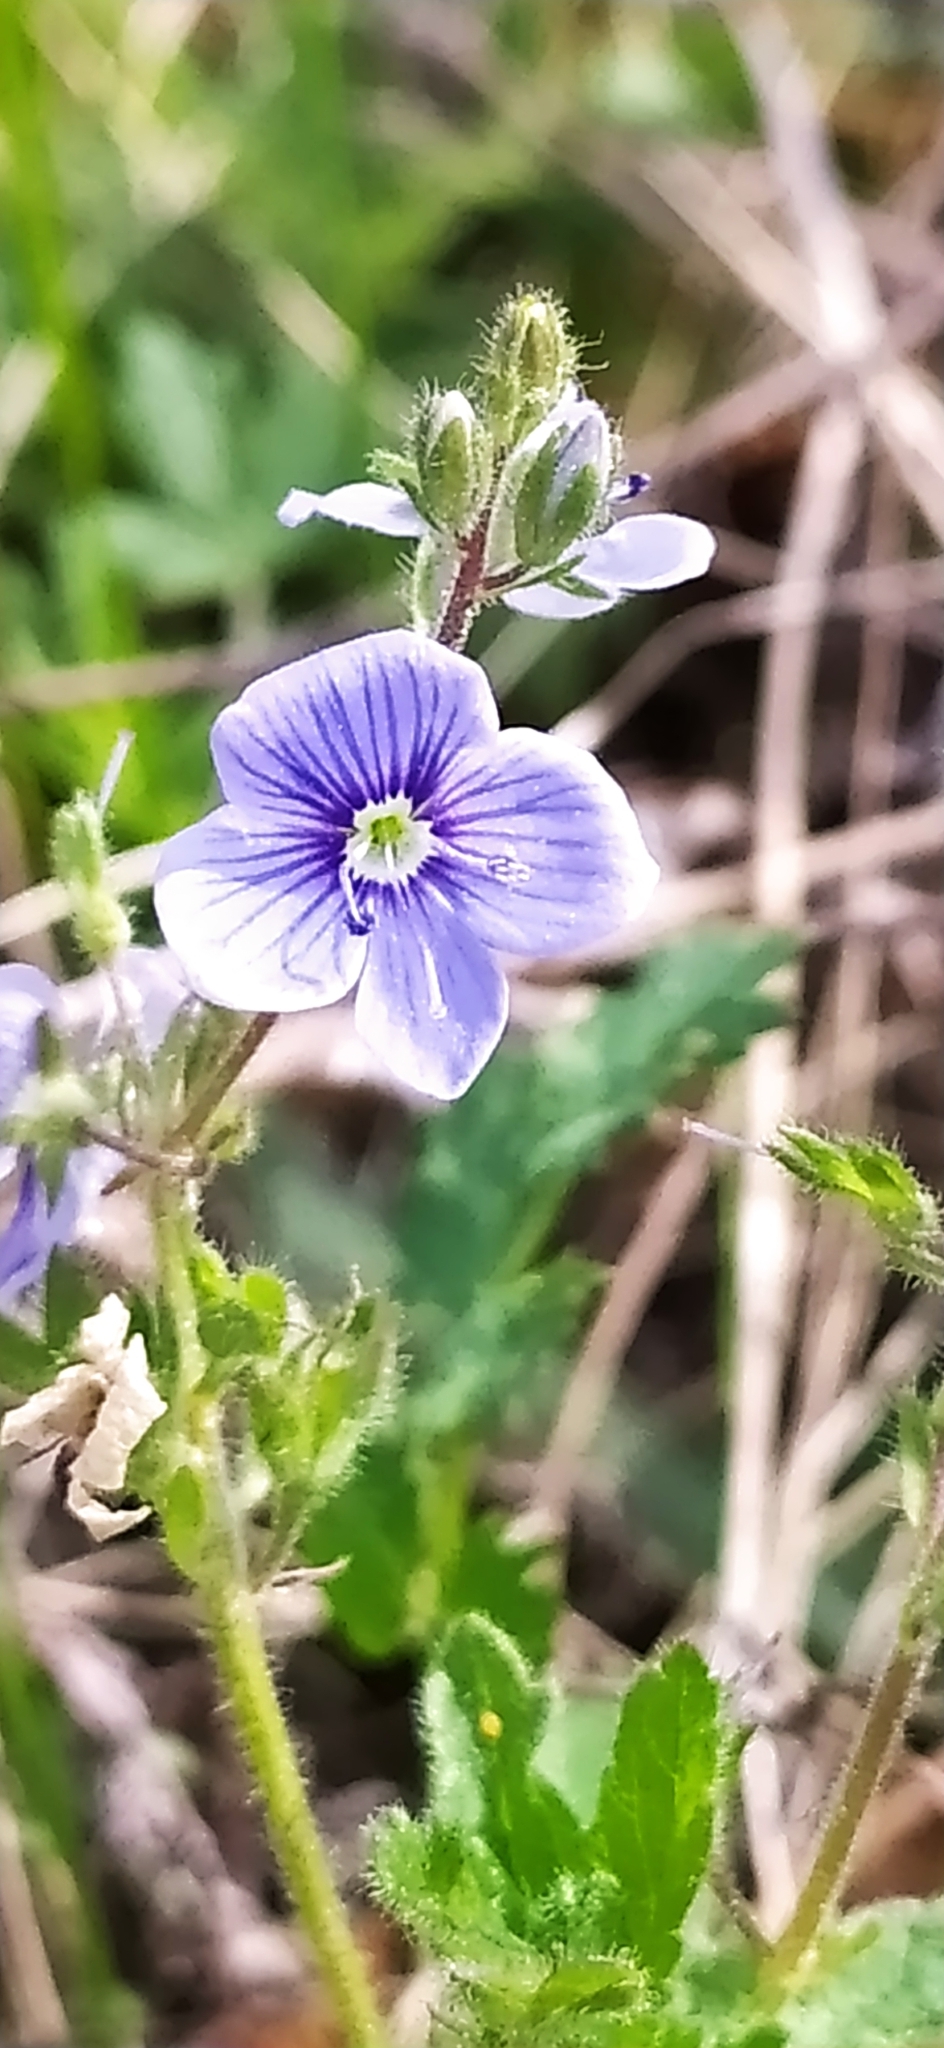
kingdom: Plantae
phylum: Tracheophyta
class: Magnoliopsida
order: Lamiales
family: Plantaginaceae
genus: Veronica
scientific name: Veronica chamaedrys
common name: Germander speedwell
